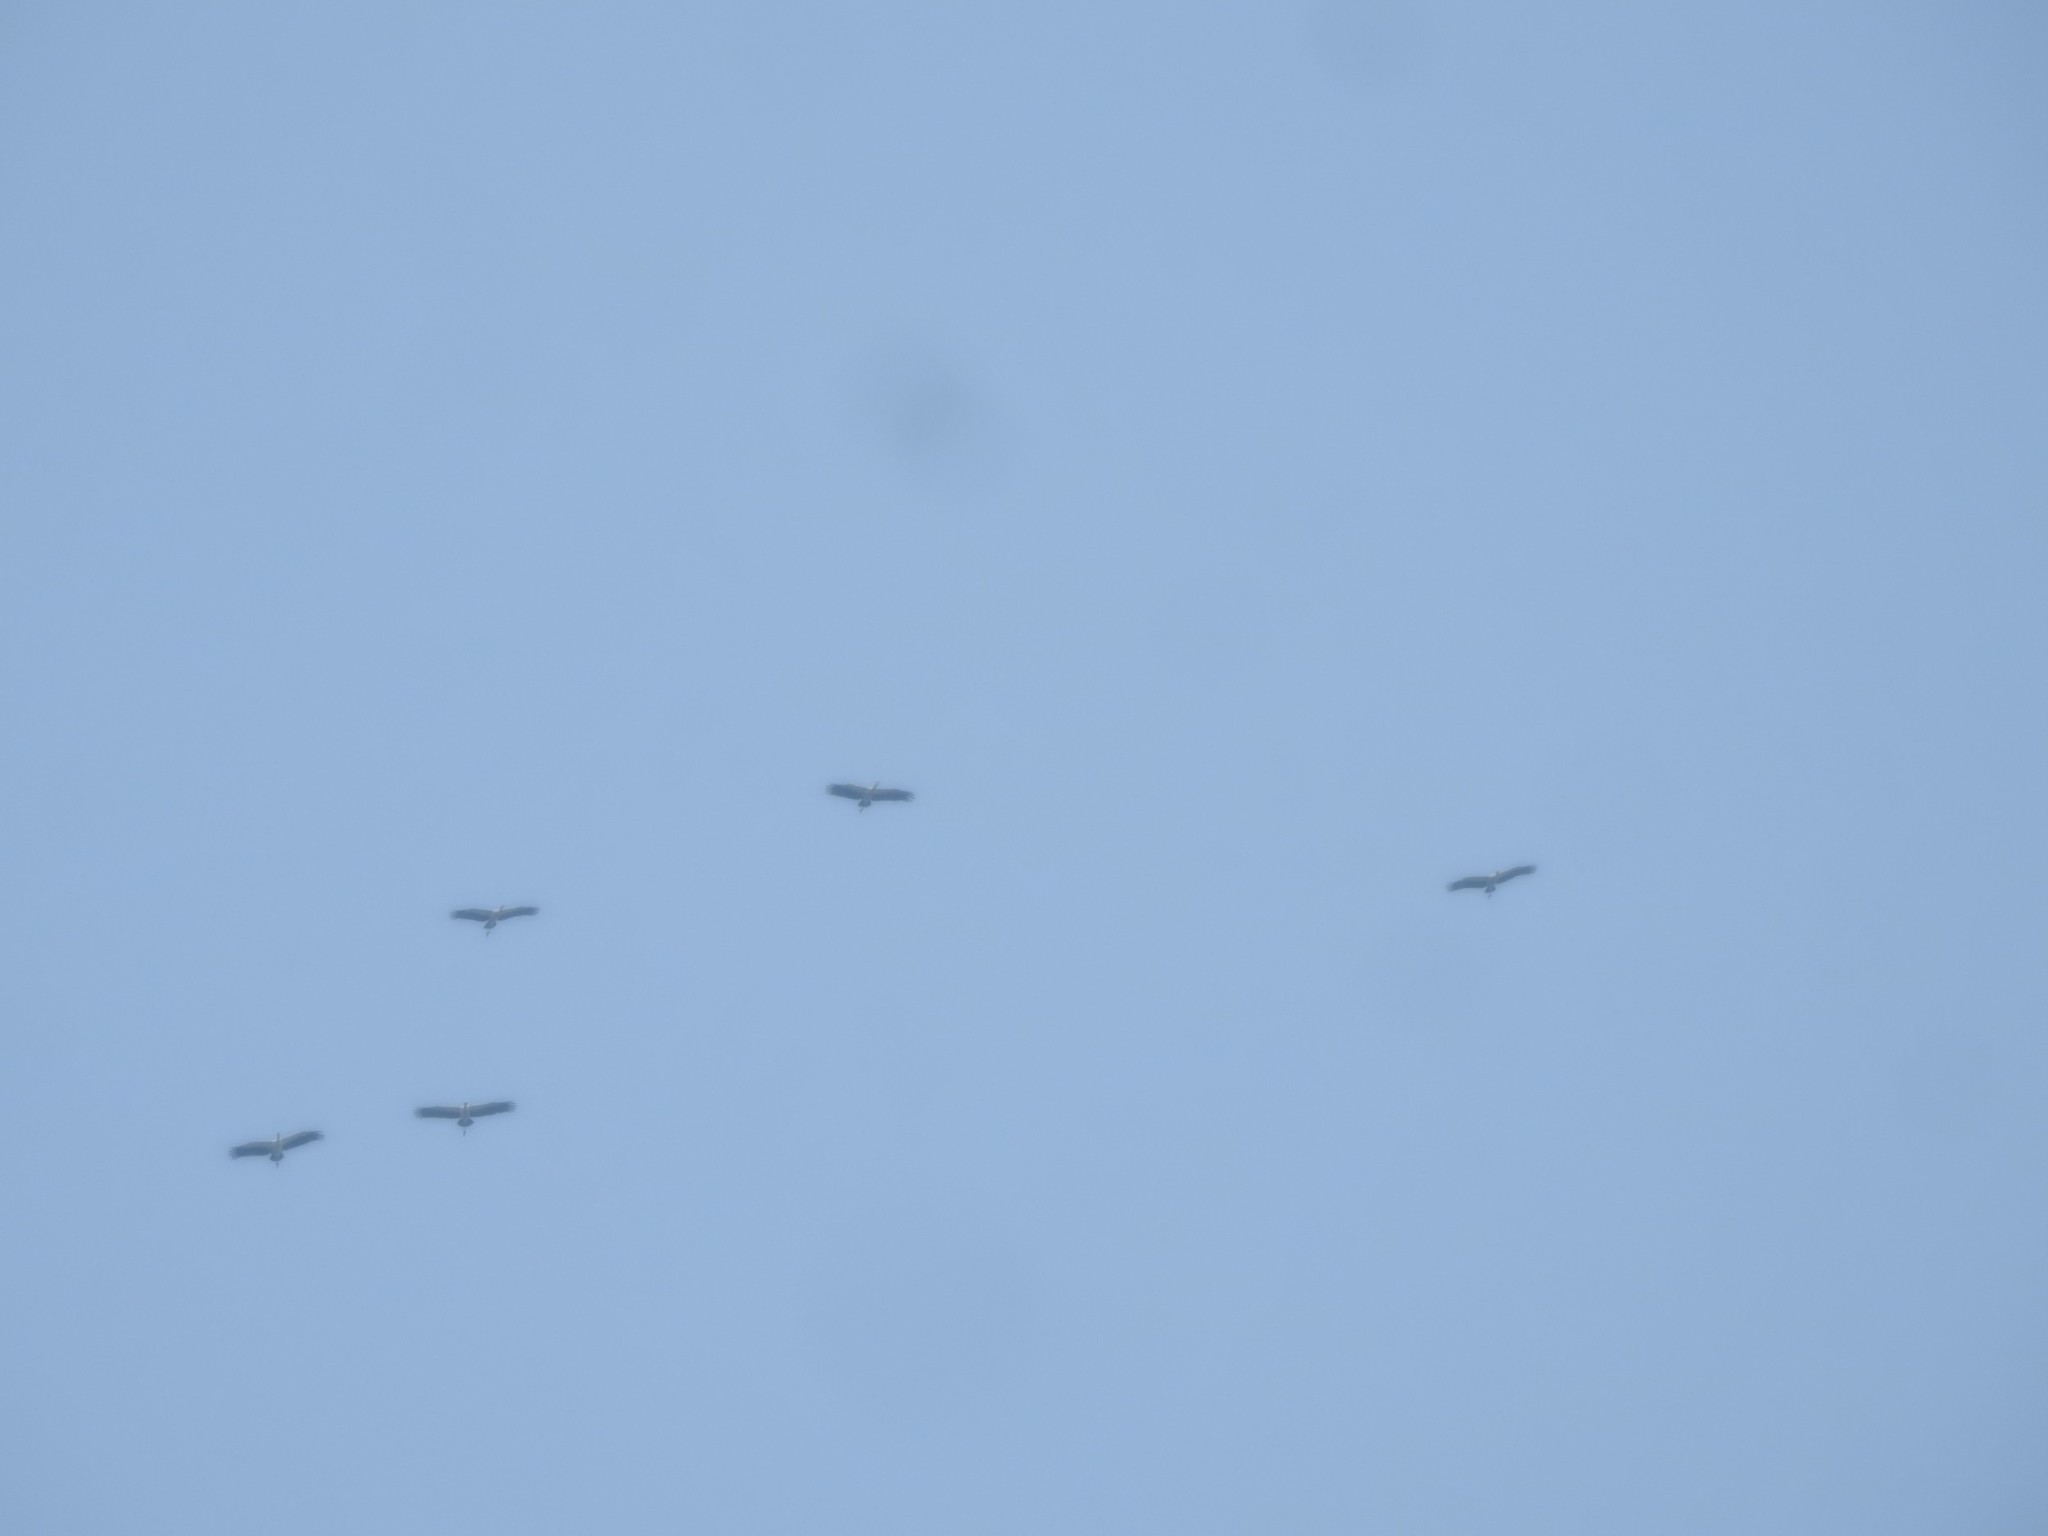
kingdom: Animalia
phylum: Chordata
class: Aves
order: Ciconiiformes
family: Ciconiidae
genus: Anastomus
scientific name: Anastomus oscitans
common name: Asian openbill
